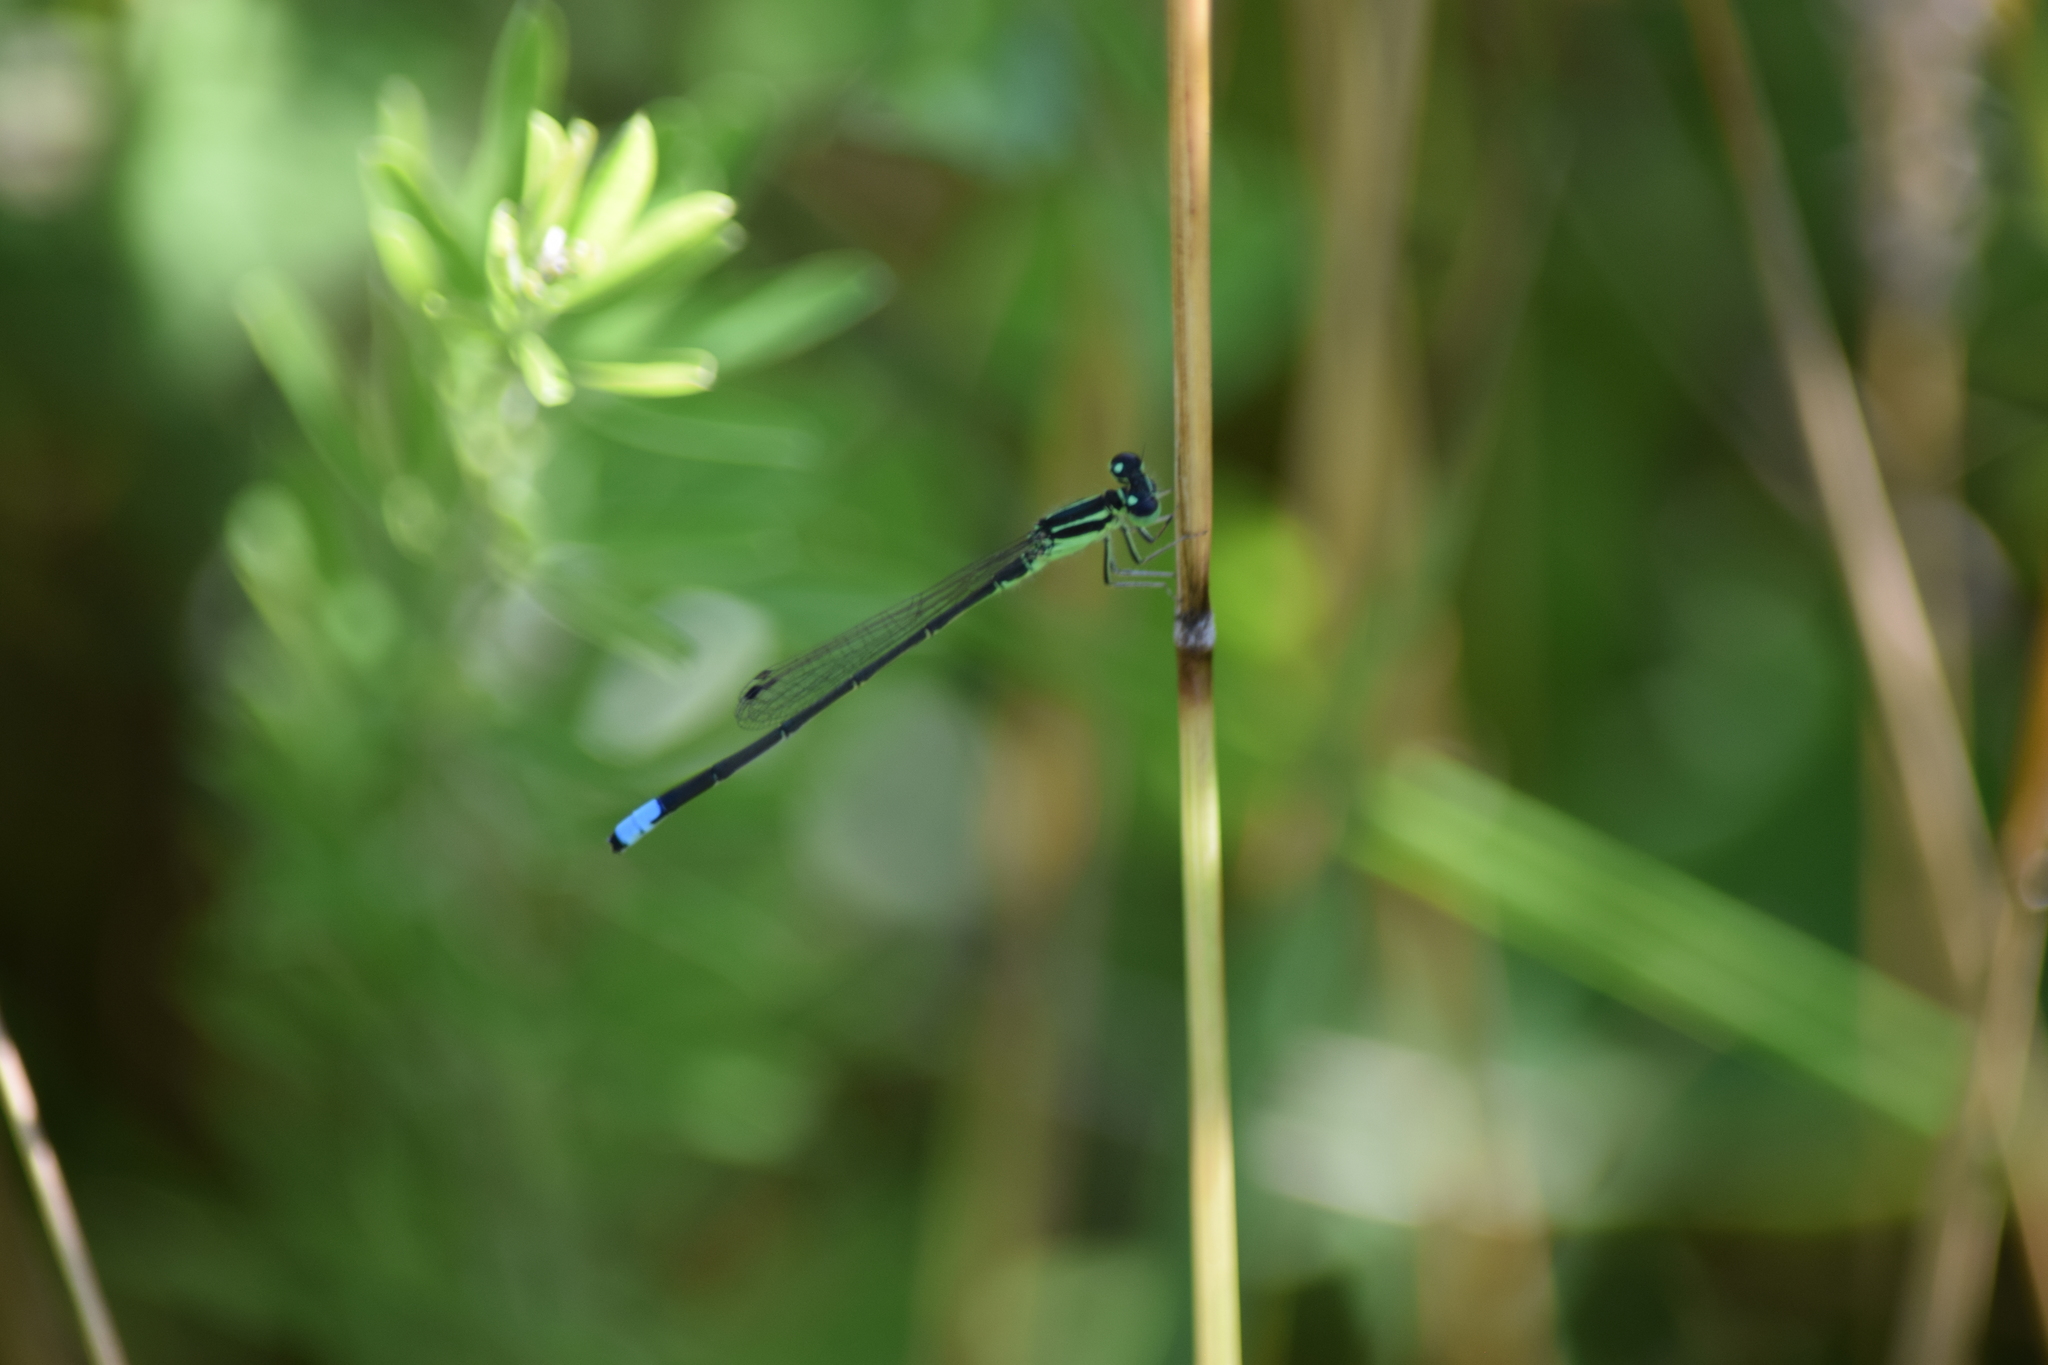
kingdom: Animalia
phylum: Arthropoda
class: Insecta
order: Odonata
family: Coenagrionidae
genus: Ischnura
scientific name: Ischnura verticalis
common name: Eastern forktail
